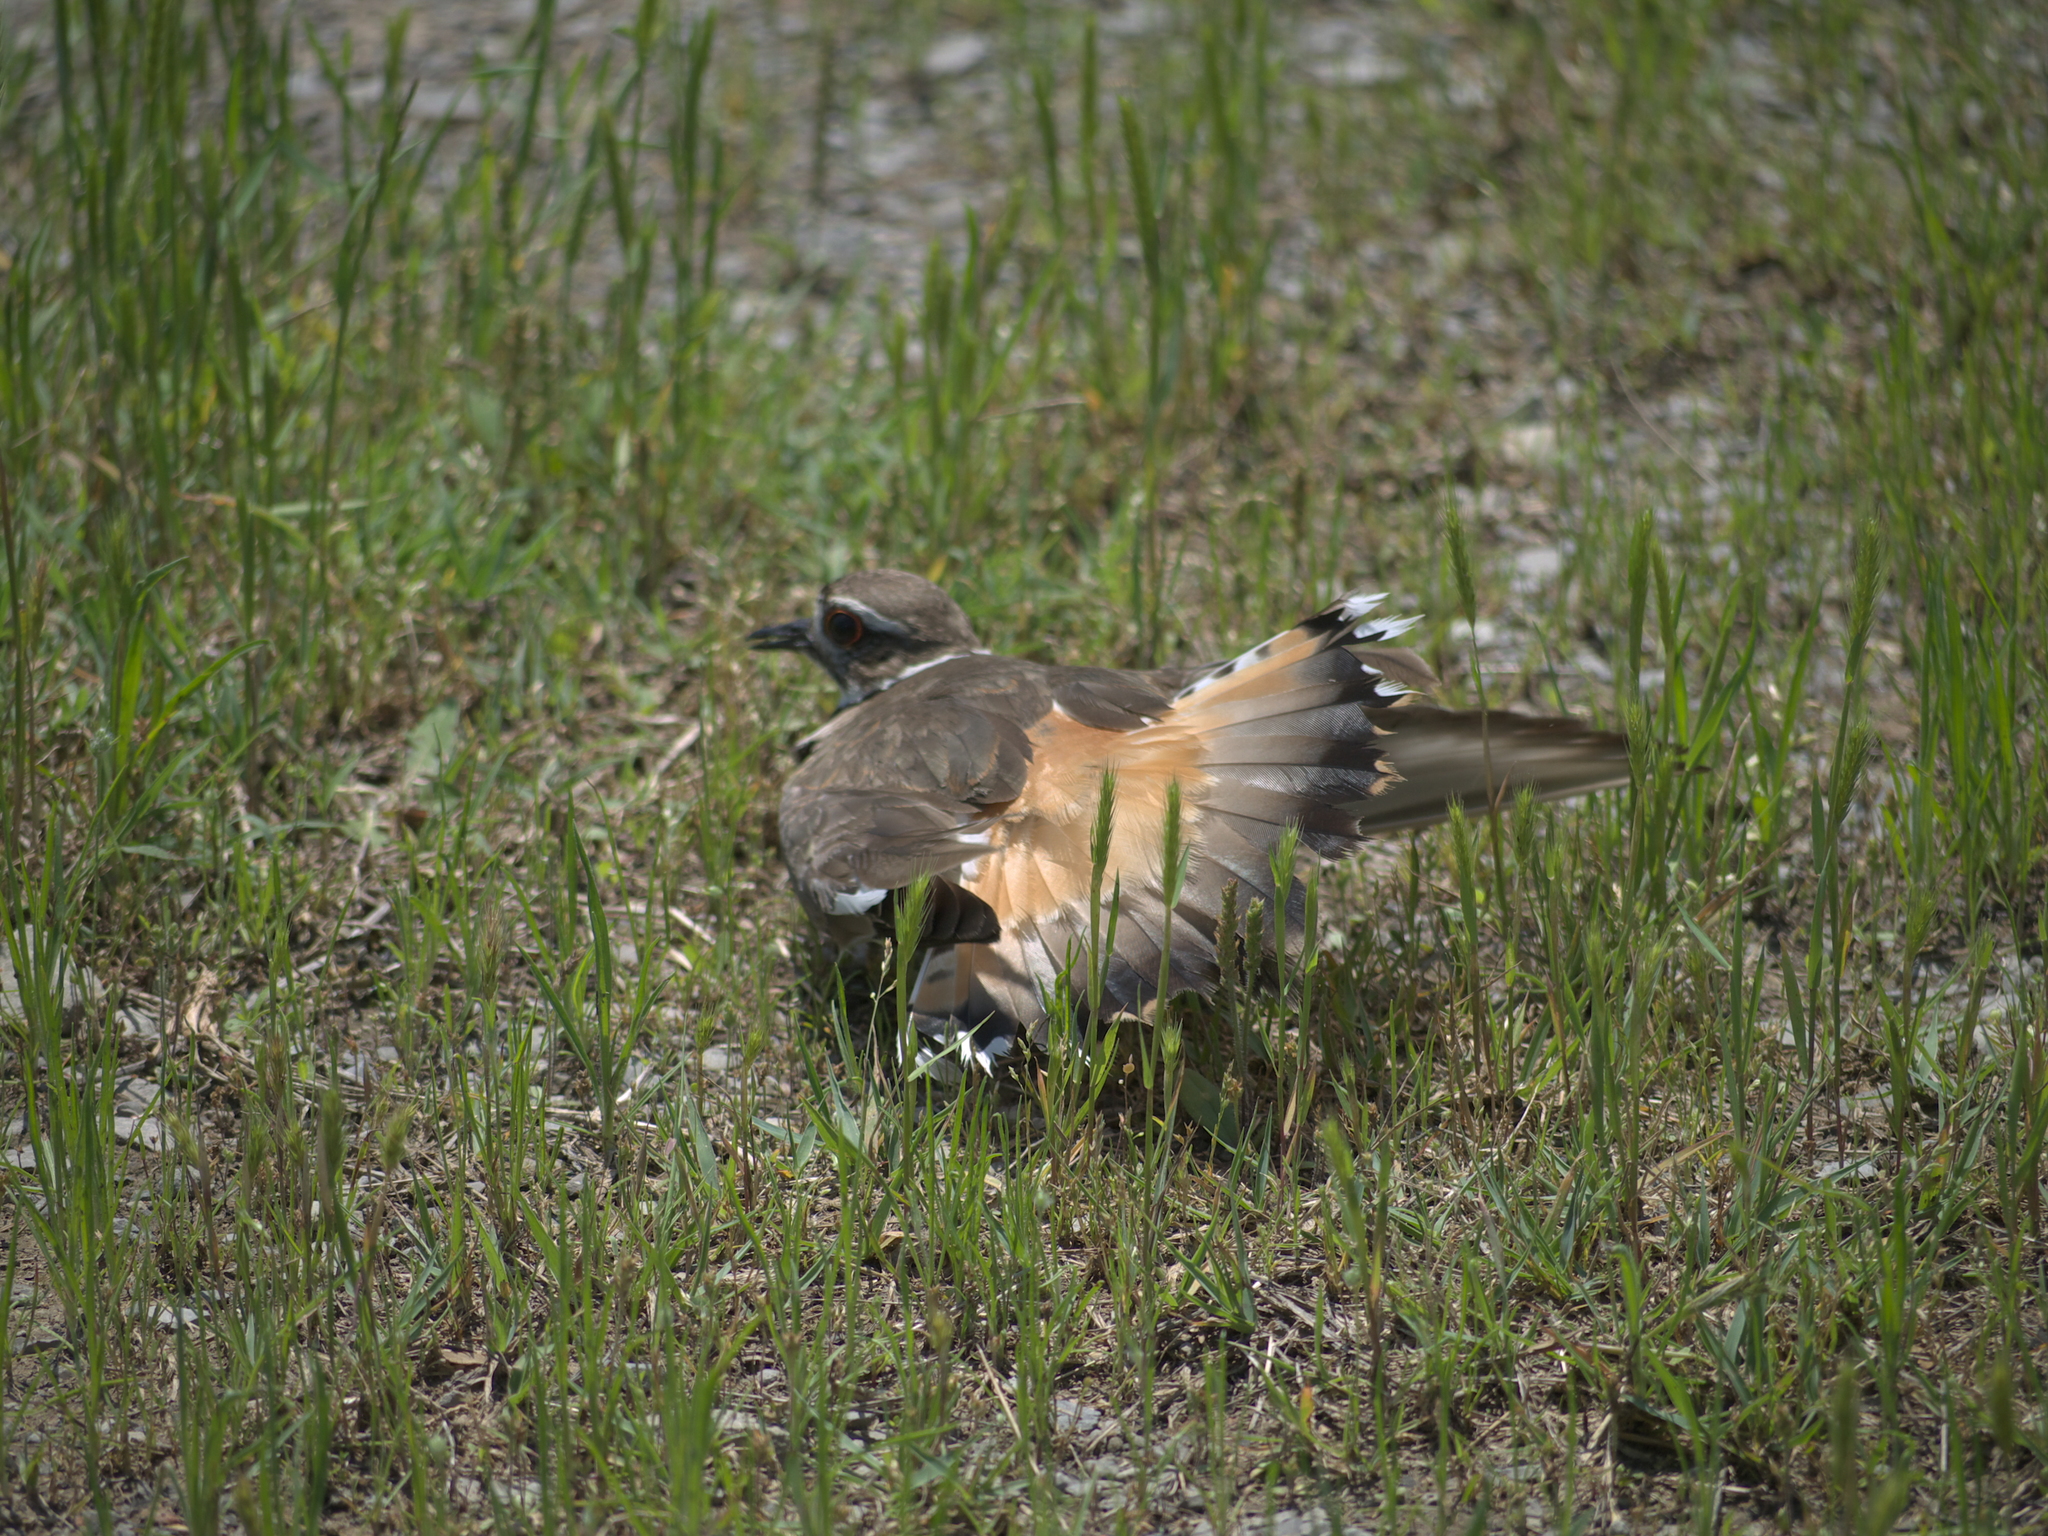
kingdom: Animalia
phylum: Chordata
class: Aves
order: Charadriiformes
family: Charadriidae
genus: Charadrius
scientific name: Charadrius vociferus
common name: Killdeer
